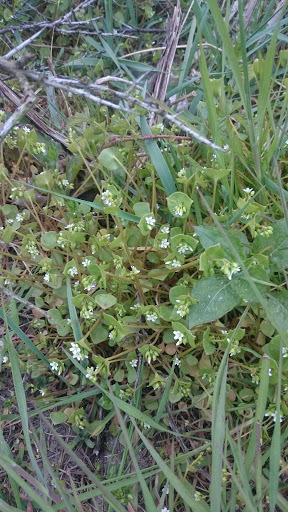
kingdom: Plantae
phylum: Tracheophyta
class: Magnoliopsida
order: Caryophyllales
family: Montiaceae
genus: Claytonia
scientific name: Claytonia perfoliata
